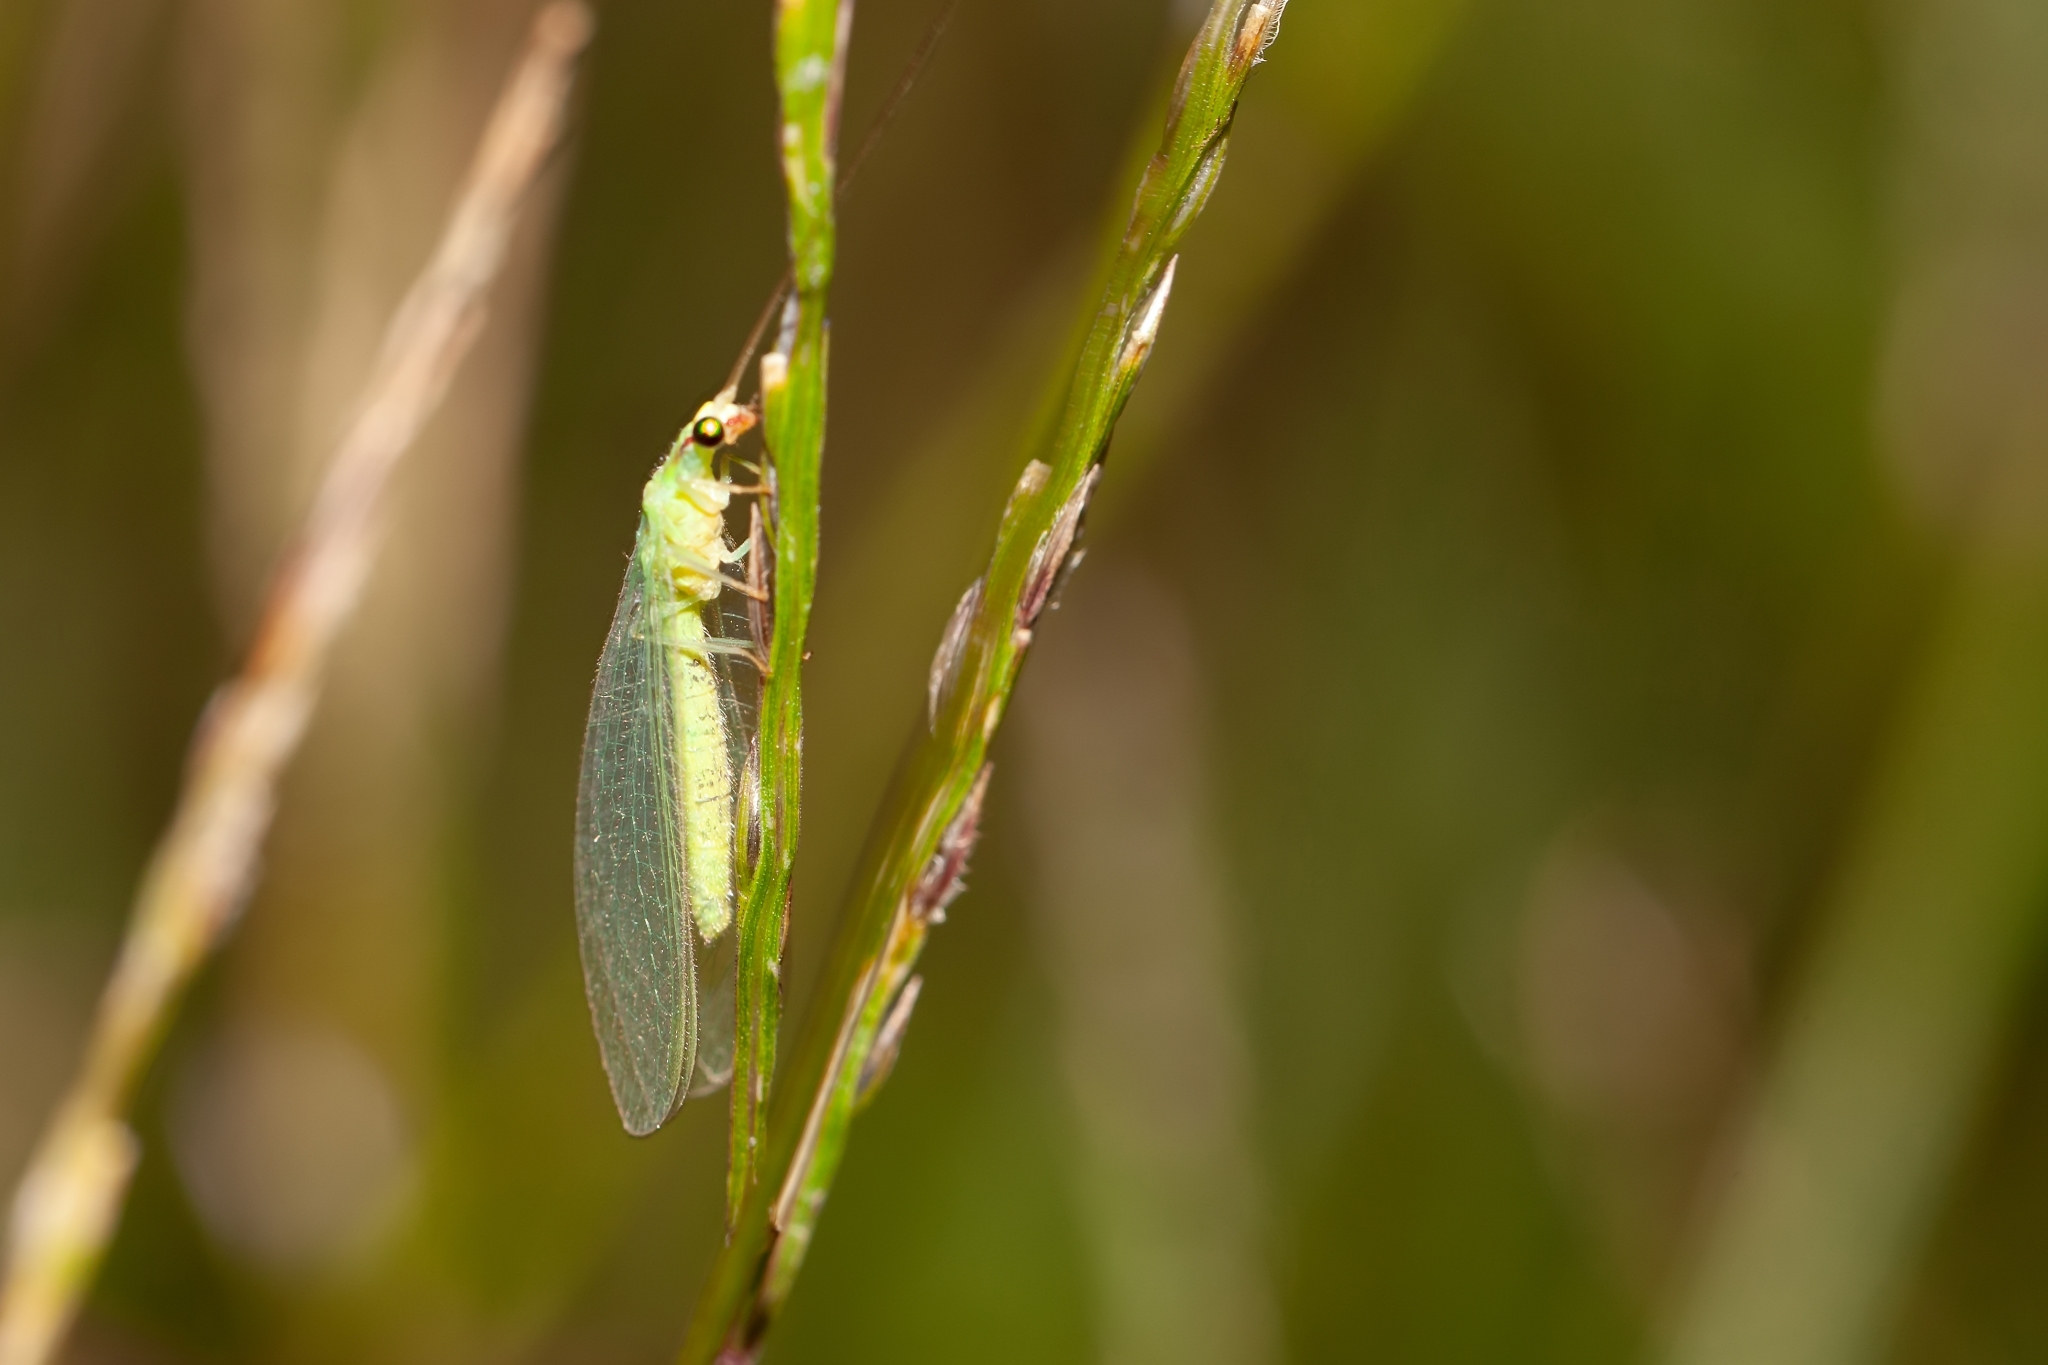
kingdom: Animalia
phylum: Arthropoda
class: Insecta
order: Neuroptera
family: Chrysopidae
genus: Chrysoperla
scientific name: Chrysoperla externa
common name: Green lacewing
